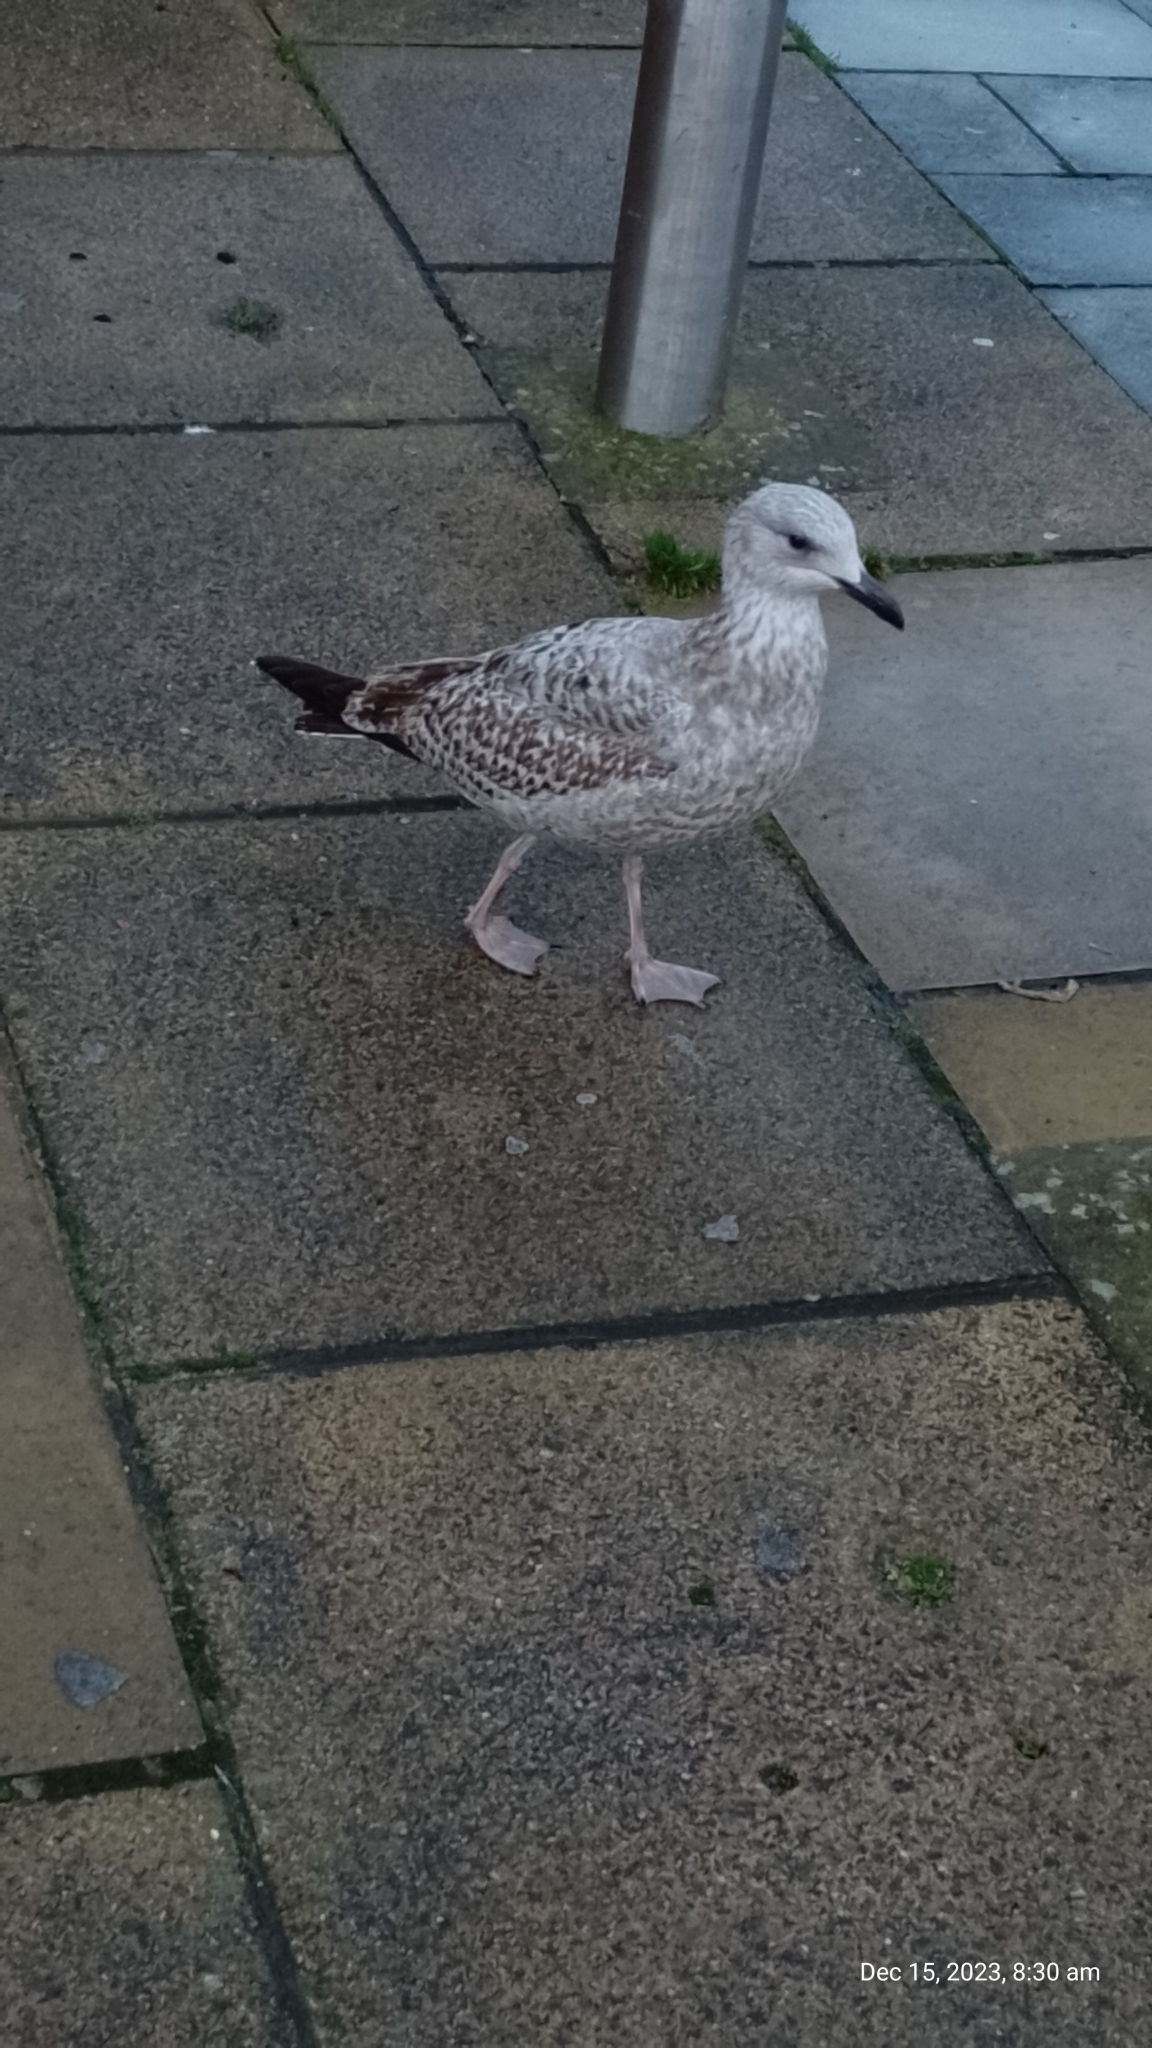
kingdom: Animalia
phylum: Chordata
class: Aves
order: Charadriiformes
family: Laridae
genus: Larus
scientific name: Larus argentatus
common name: Herring gull
